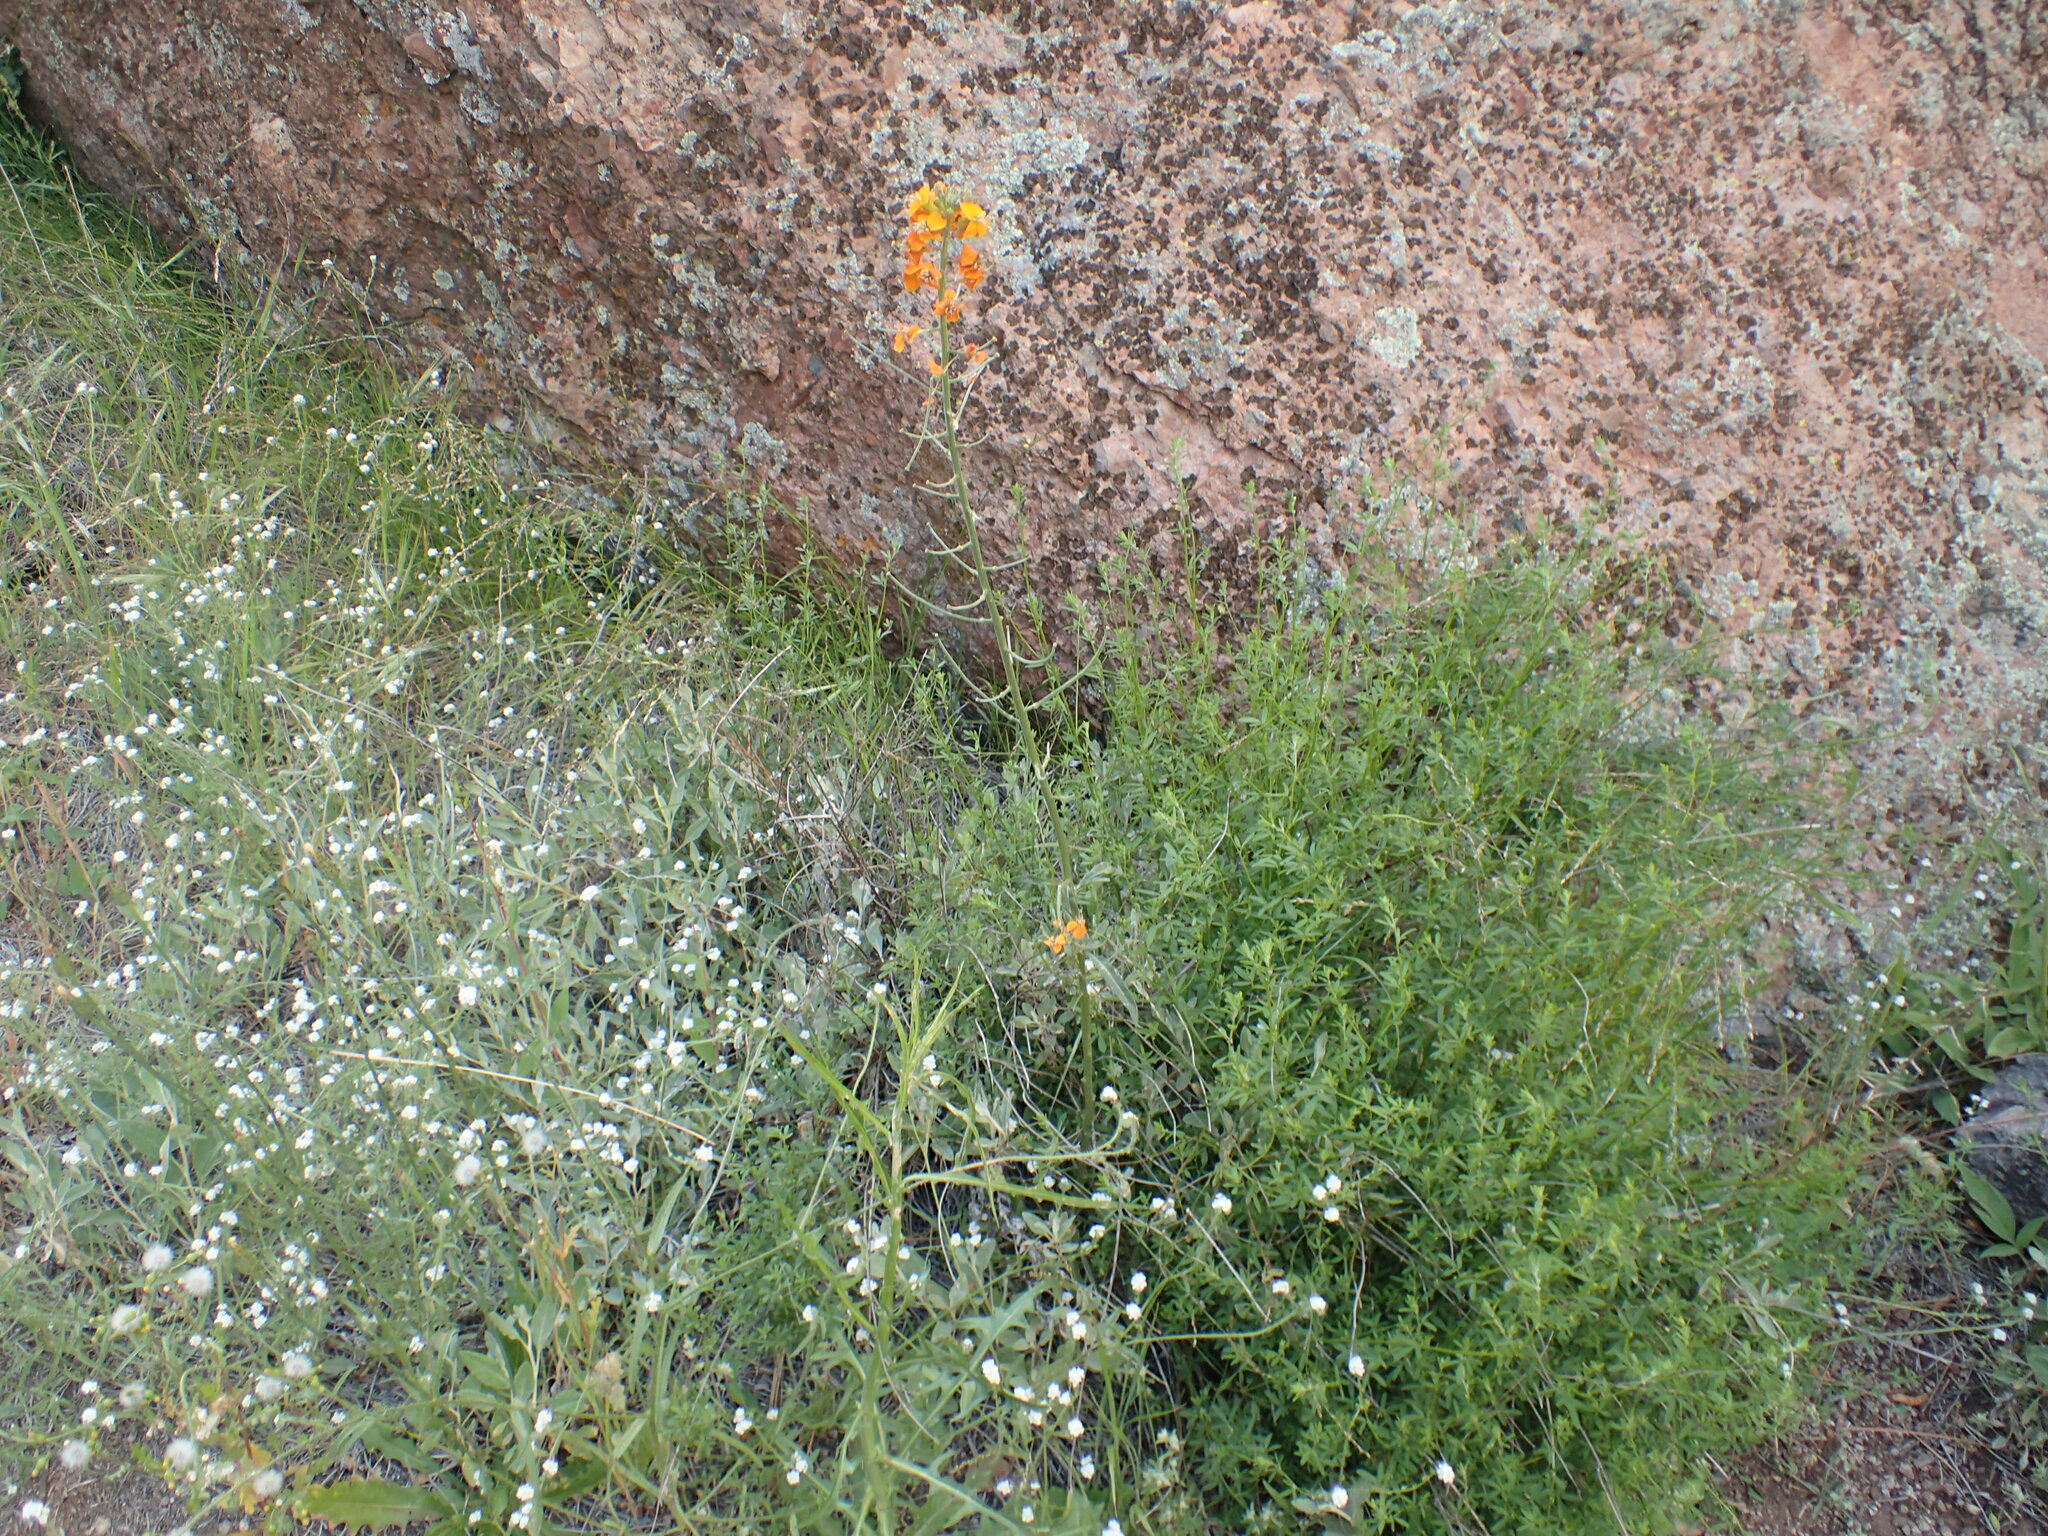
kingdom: Plantae
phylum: Tracheophyta
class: Magnoliopsida
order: Brassicales
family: Brassicaceae
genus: Erysimum
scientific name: Erysimum capitatum
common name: Western wallflower
